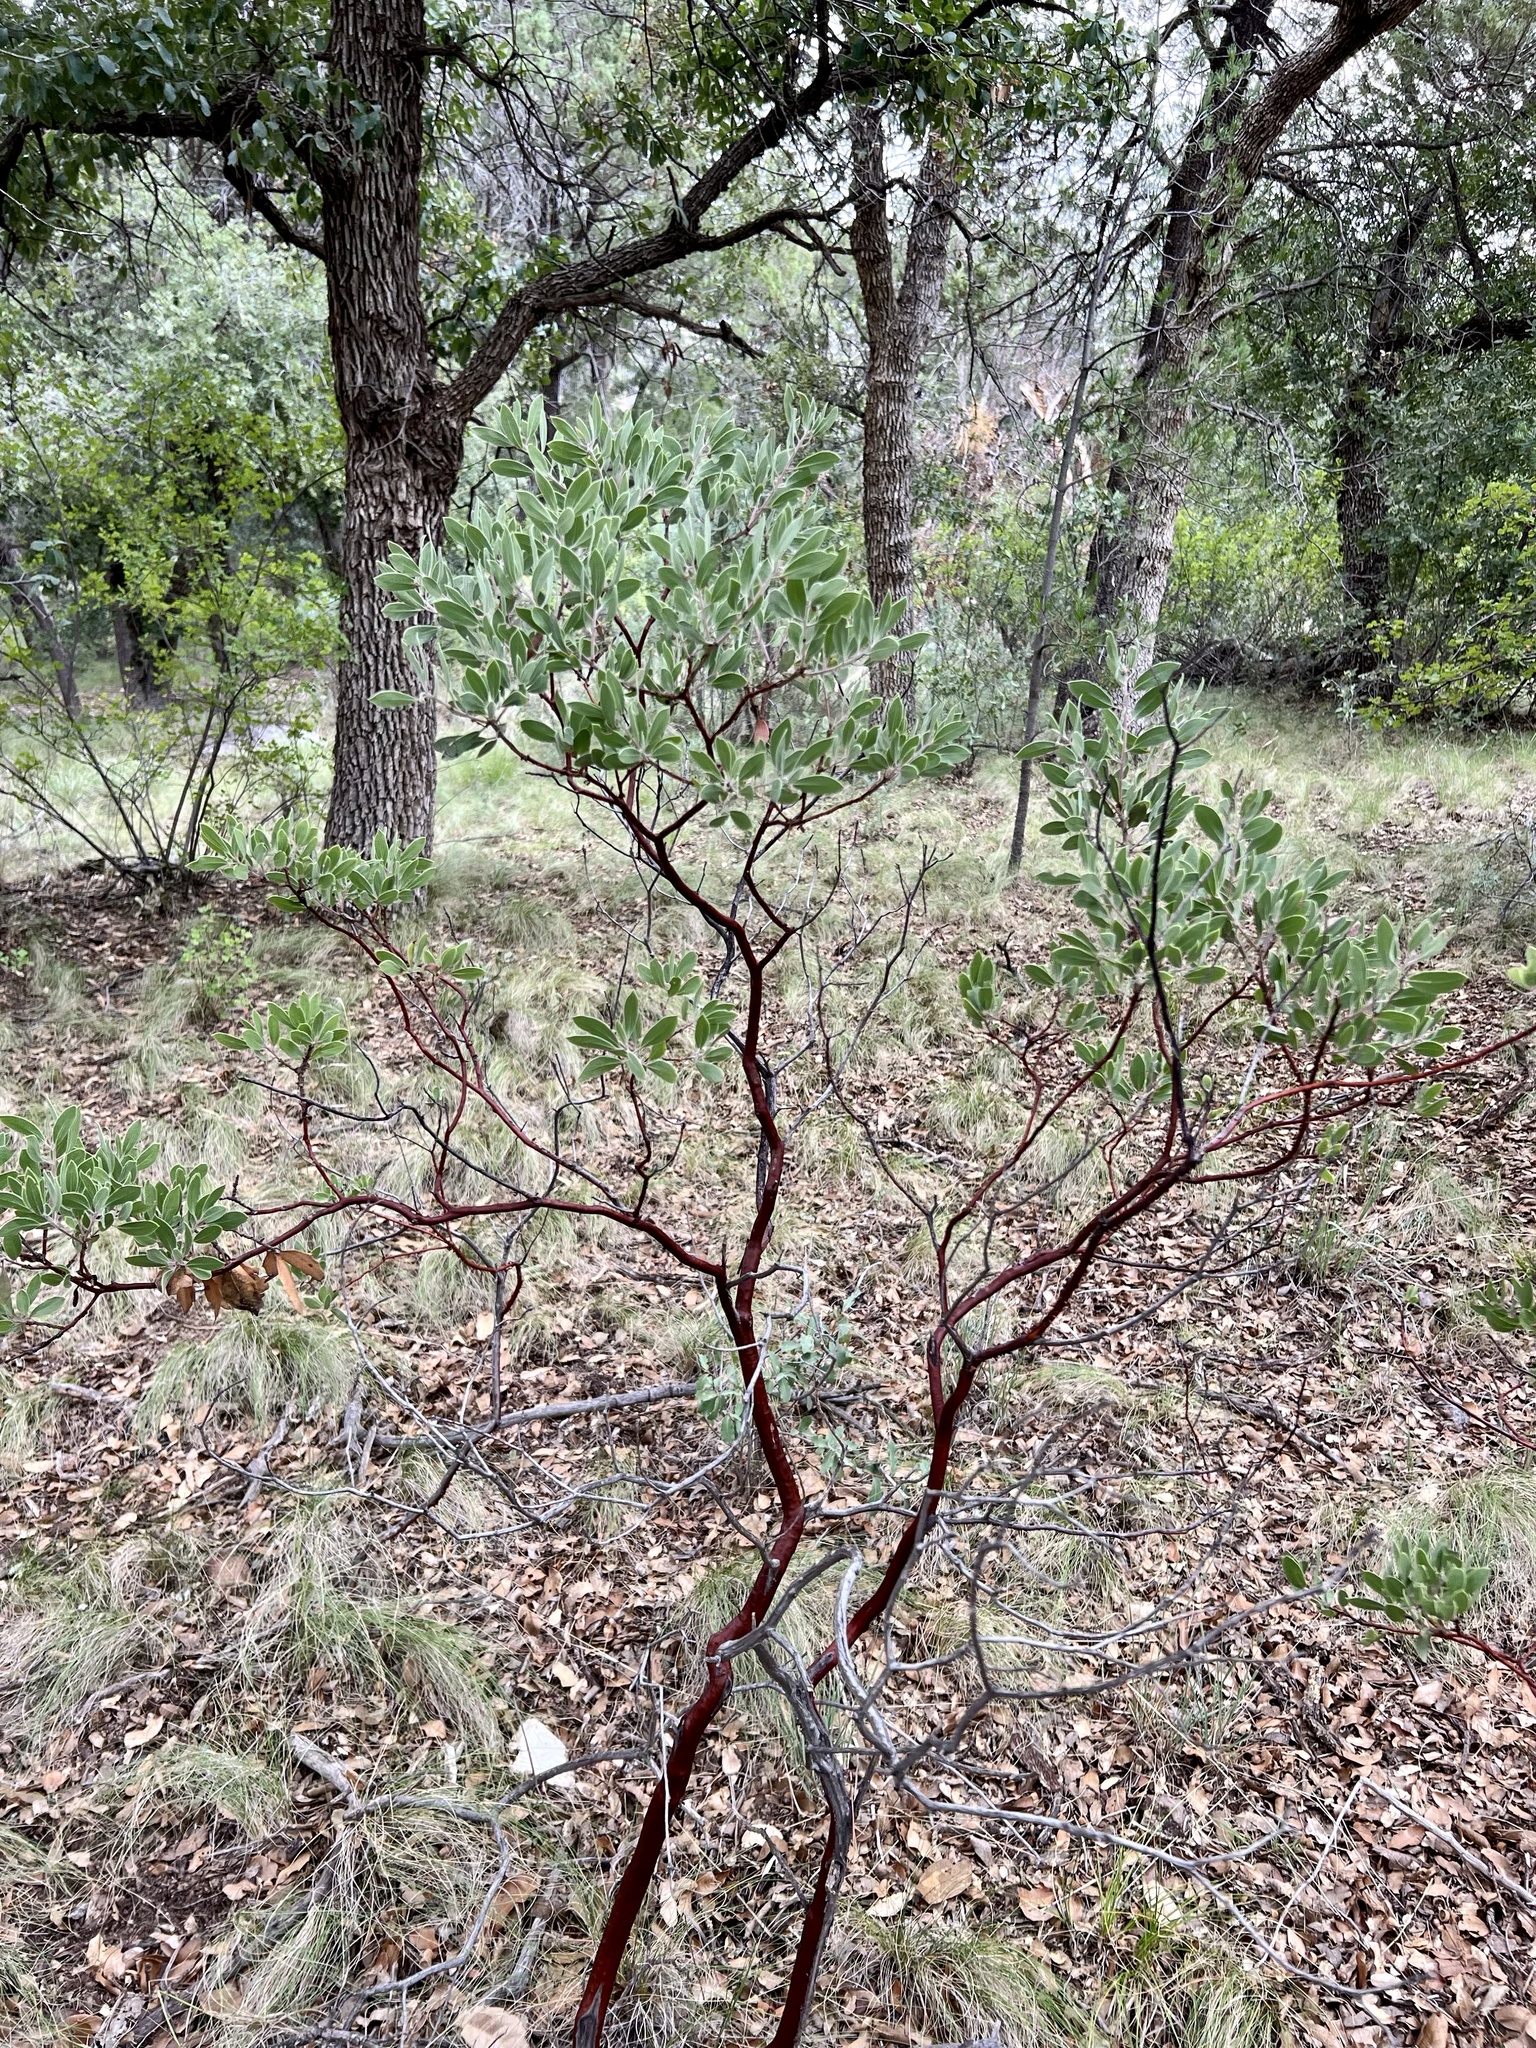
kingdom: Plantae
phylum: Tracheophyta
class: Magnoliopsida
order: Ericales
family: Ericaceae
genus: Arctostaphylos
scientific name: Arctostaphylos pungens
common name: Mexican manzanita
